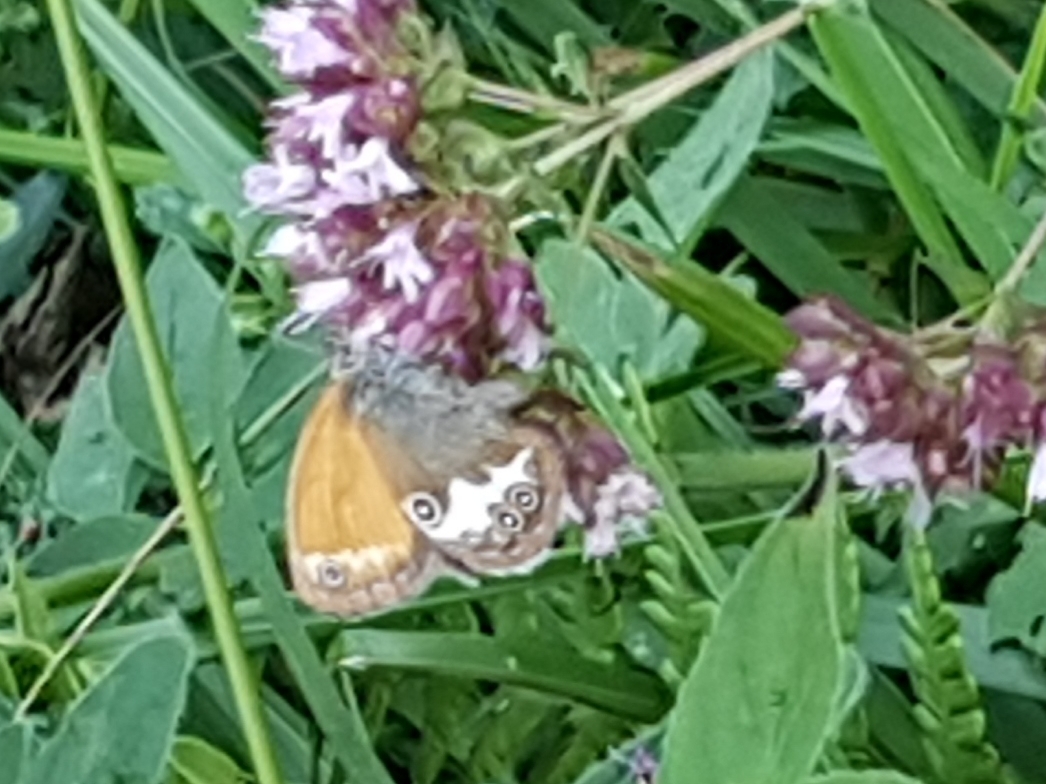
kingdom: Animalia
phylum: Arthropoda
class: Insecta
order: Lepidoptera
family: Nymphalidae
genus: Coenonympha
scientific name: Coenonympha arcania
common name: Pearly heath
